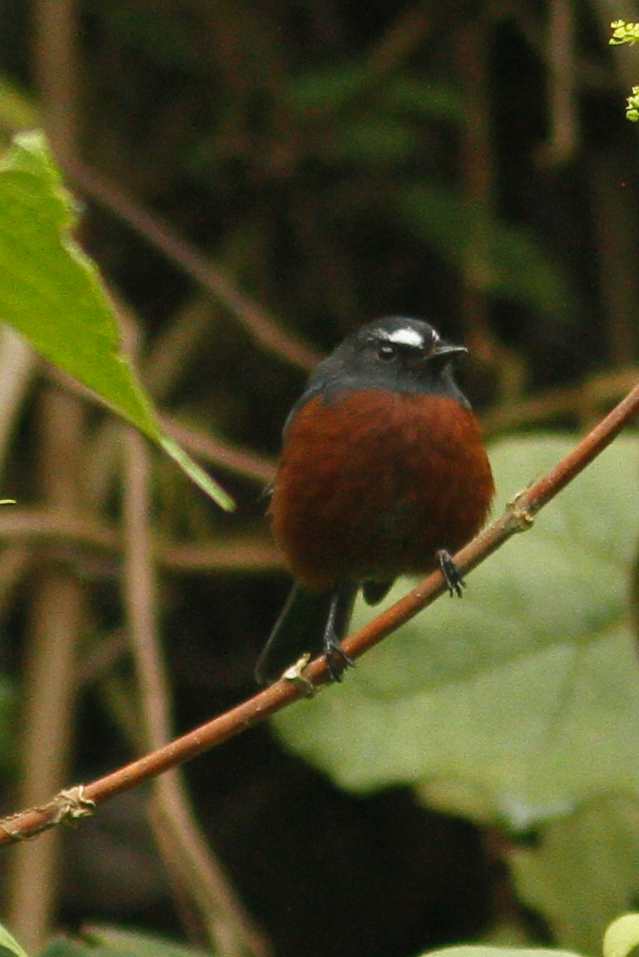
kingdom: Animalia
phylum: Chordata
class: Aves
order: Passeriformes
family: Tyrannidae
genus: Ochthoeca
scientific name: Ochthoeca cinnamomeiventris
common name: Slaty-backed chat-tyrant
